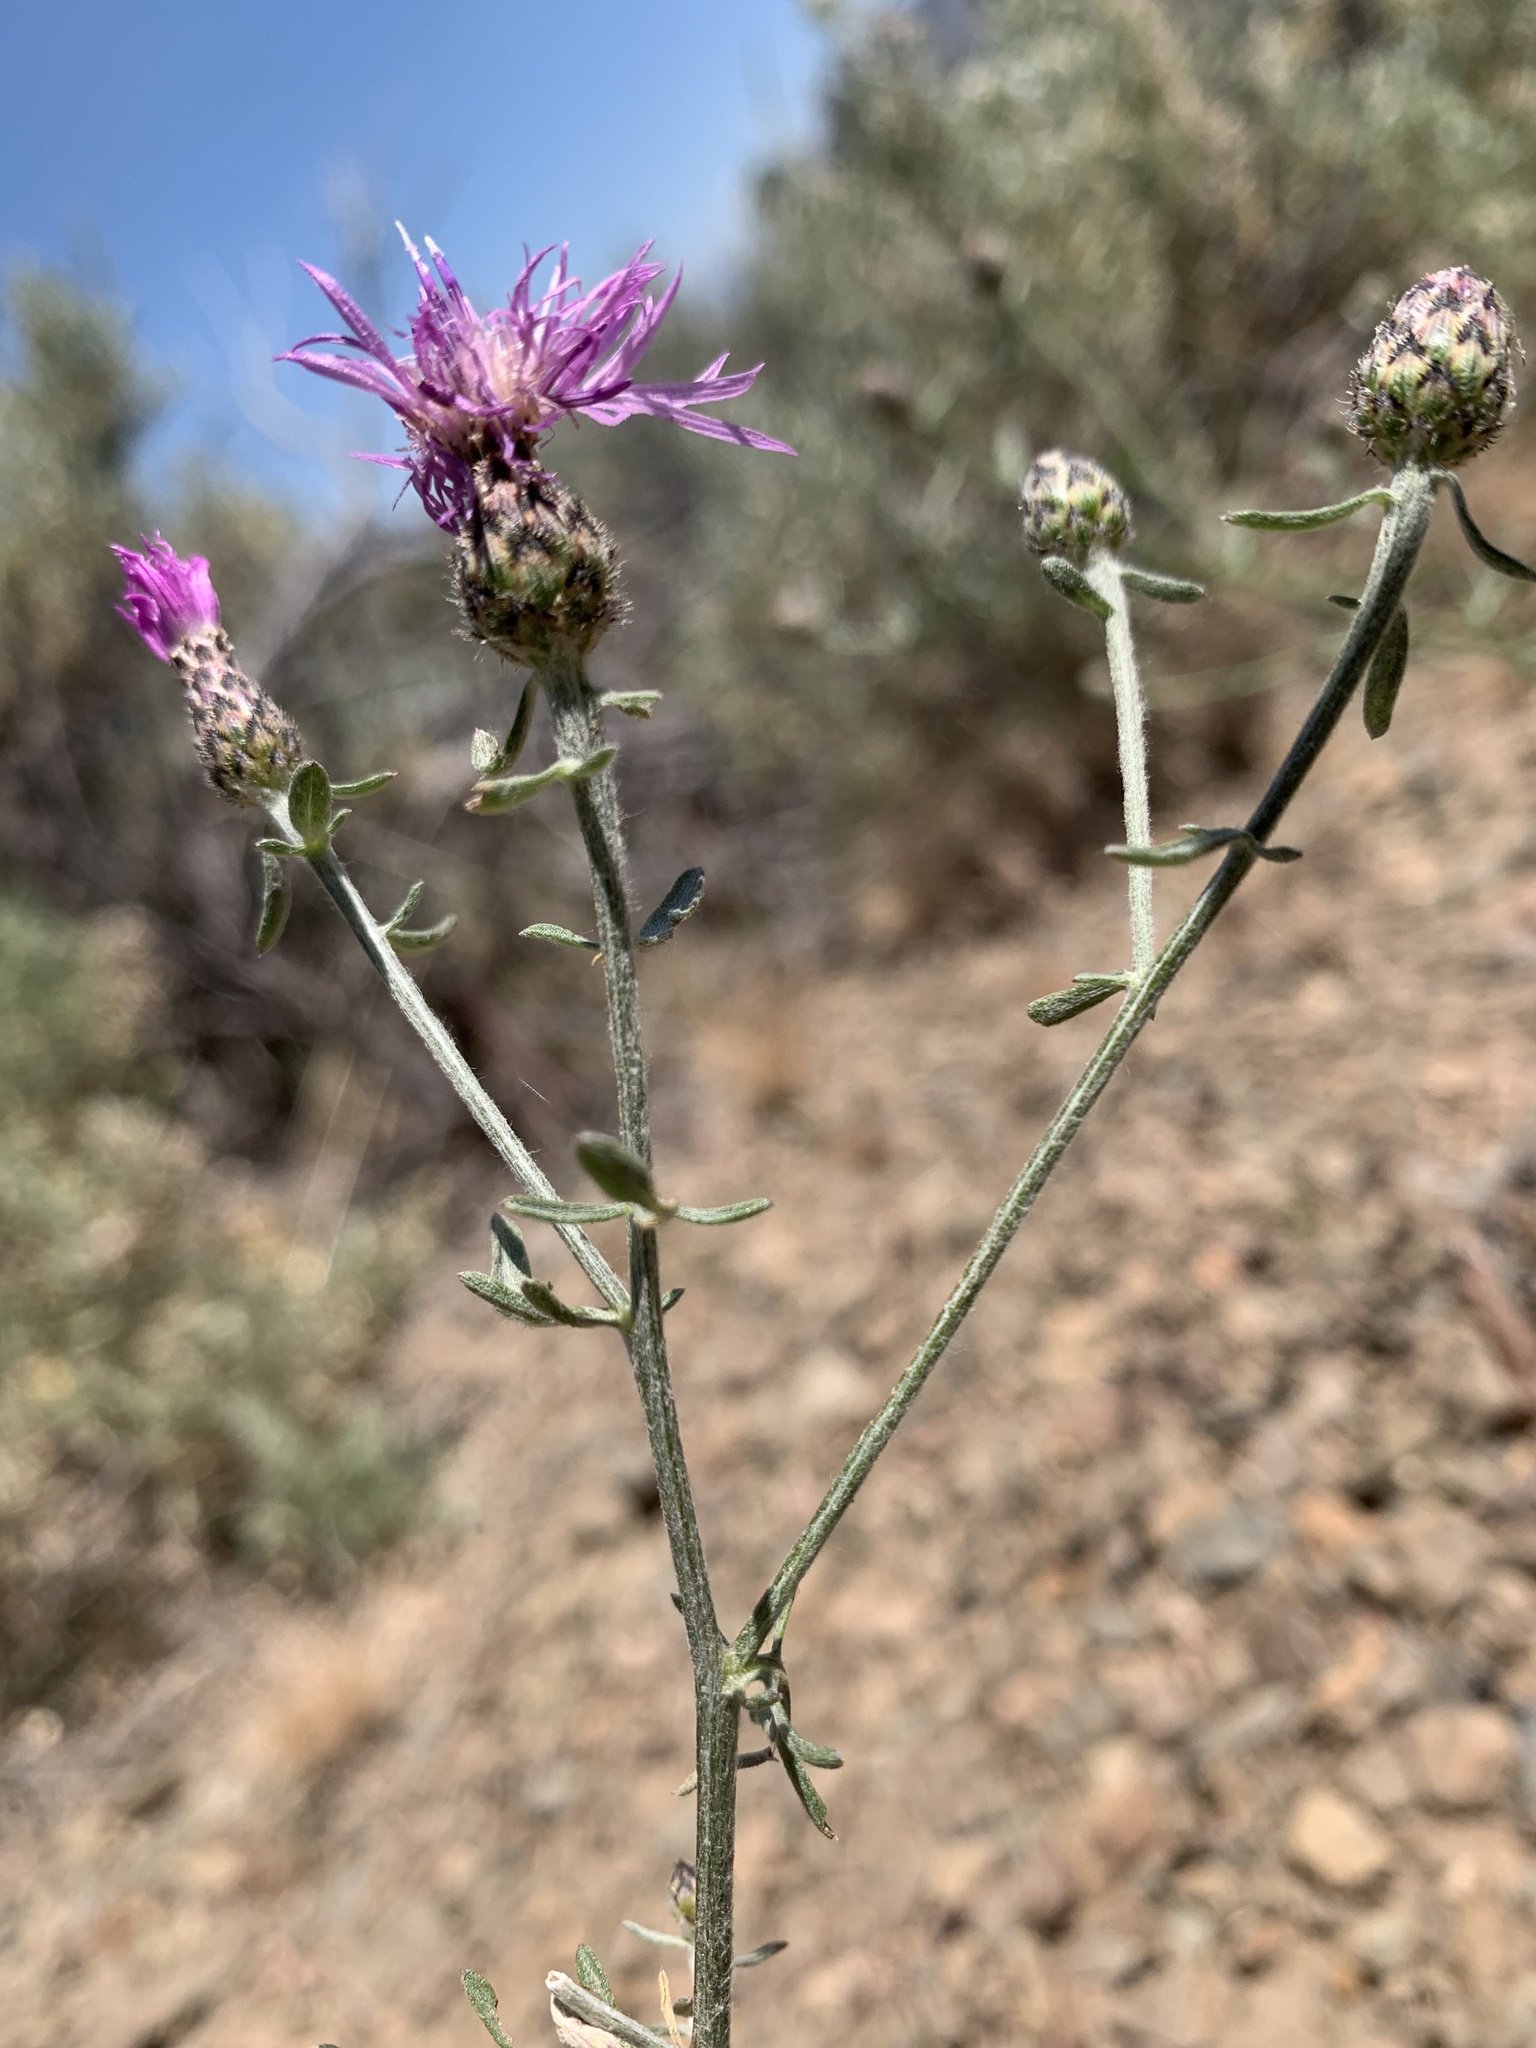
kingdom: Plantae
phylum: Tracheophyta
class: Magnoliopsida
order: Asterales
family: Asteraceae
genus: Centaurea
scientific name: Centaurea stoebe
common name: Spotted knapweed
